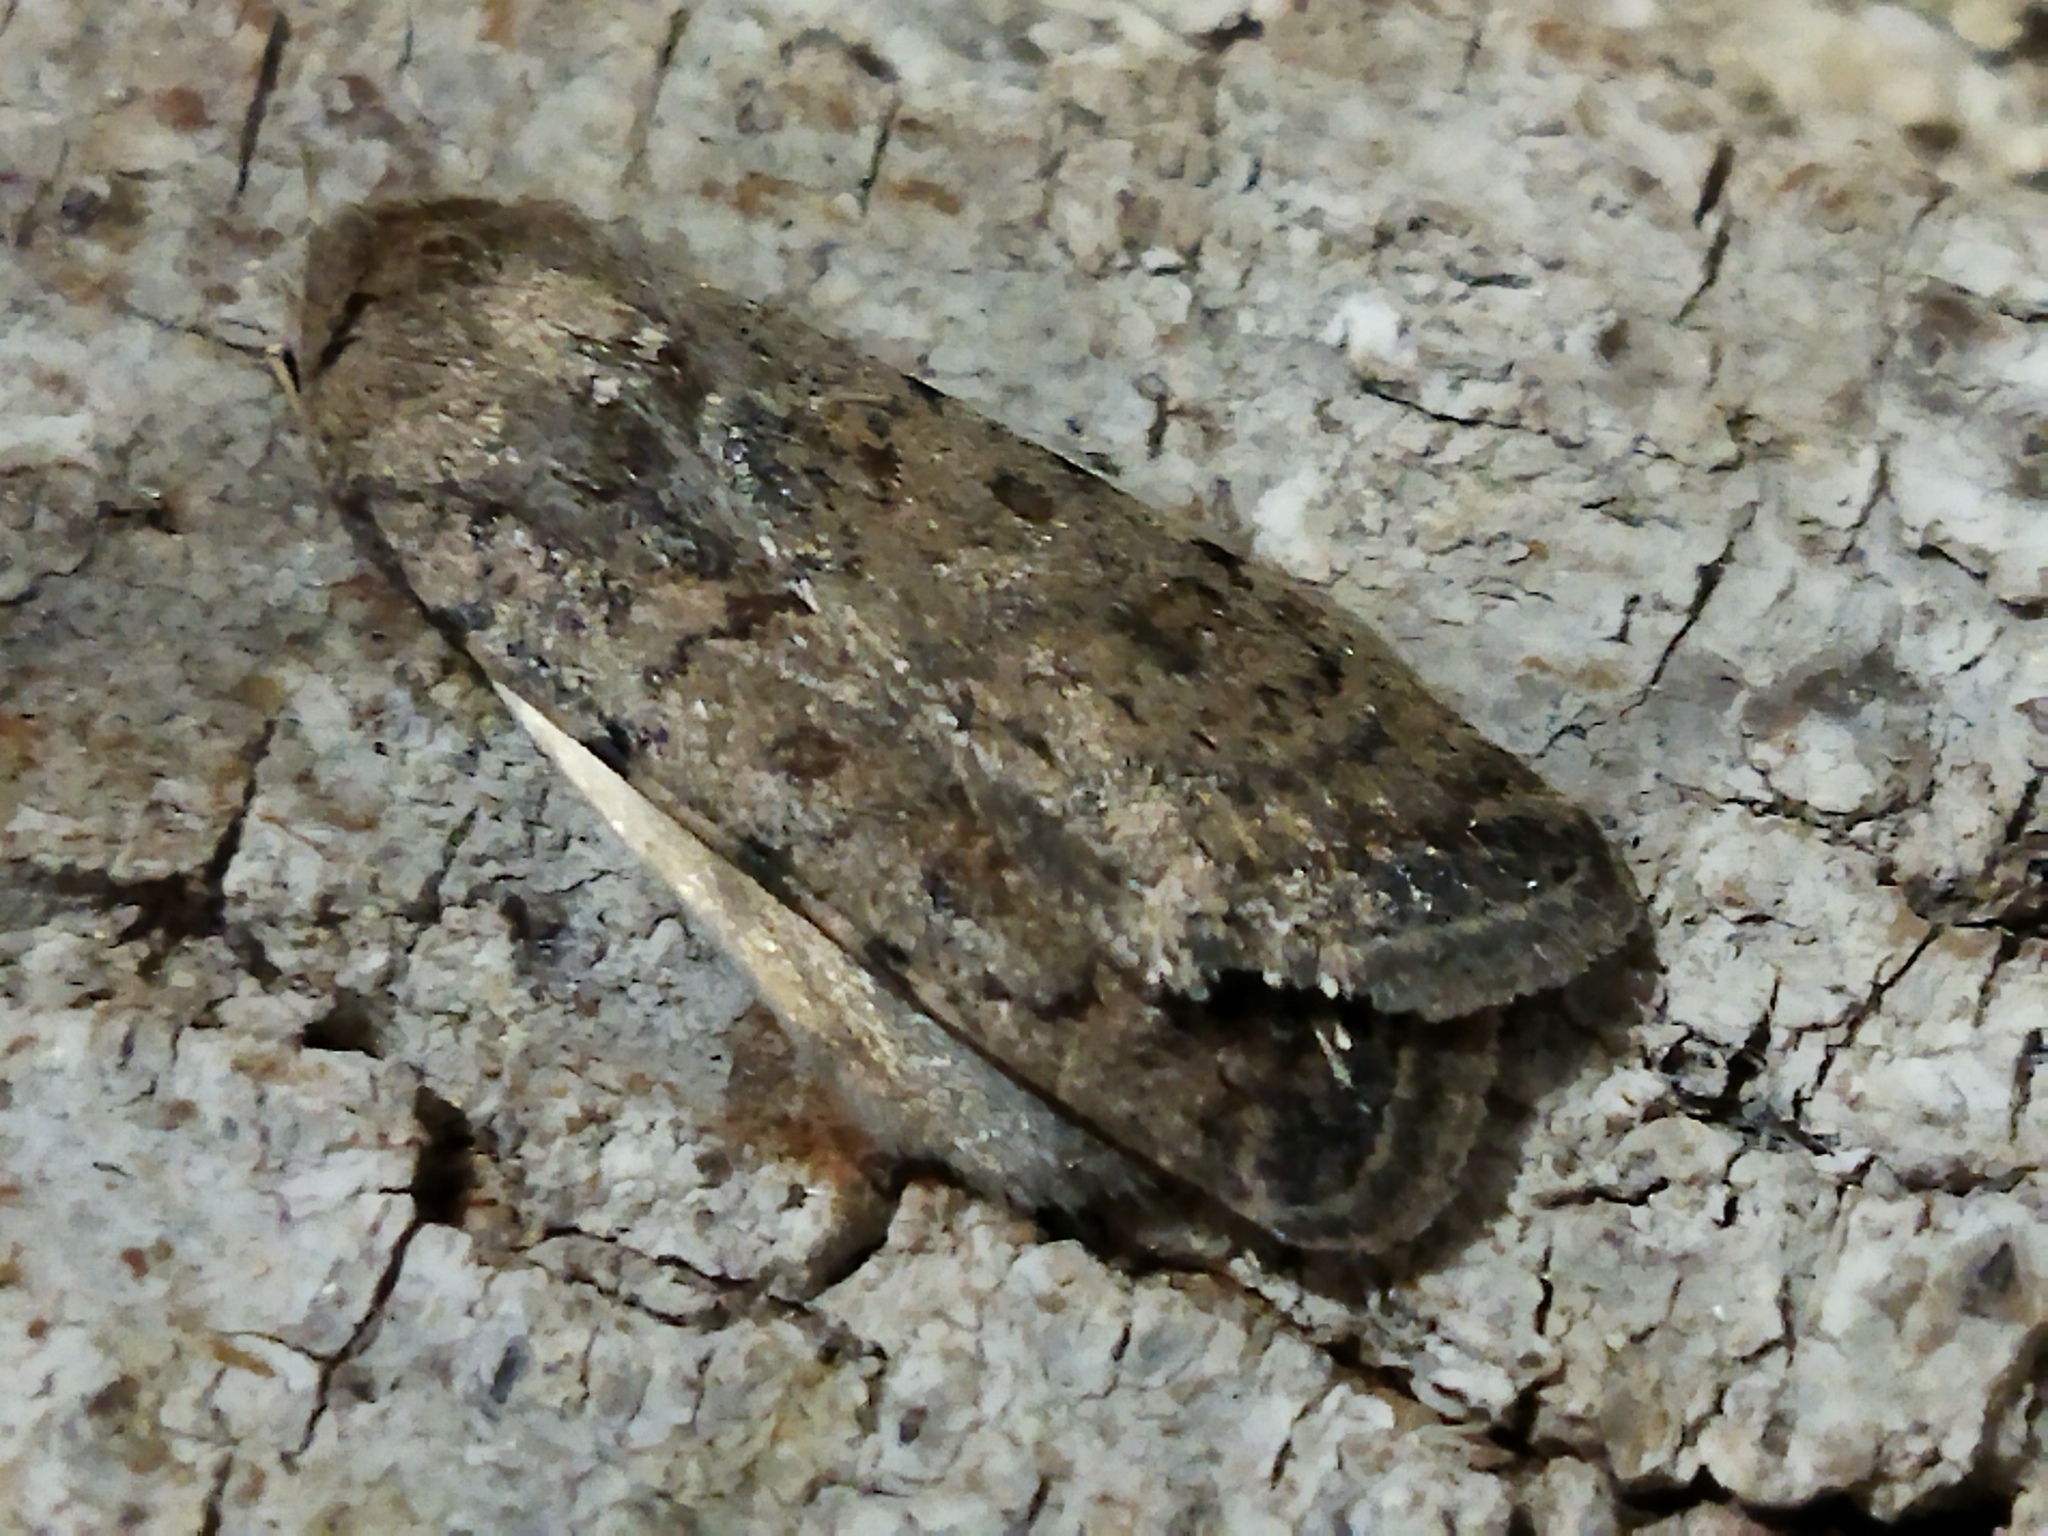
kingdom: Animalia
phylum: Arthropoda
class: Insecta
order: Lepidoptera
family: Noctuidae
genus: Caradrina
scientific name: Caradrina clavipalpis
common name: Pale mottled willow
